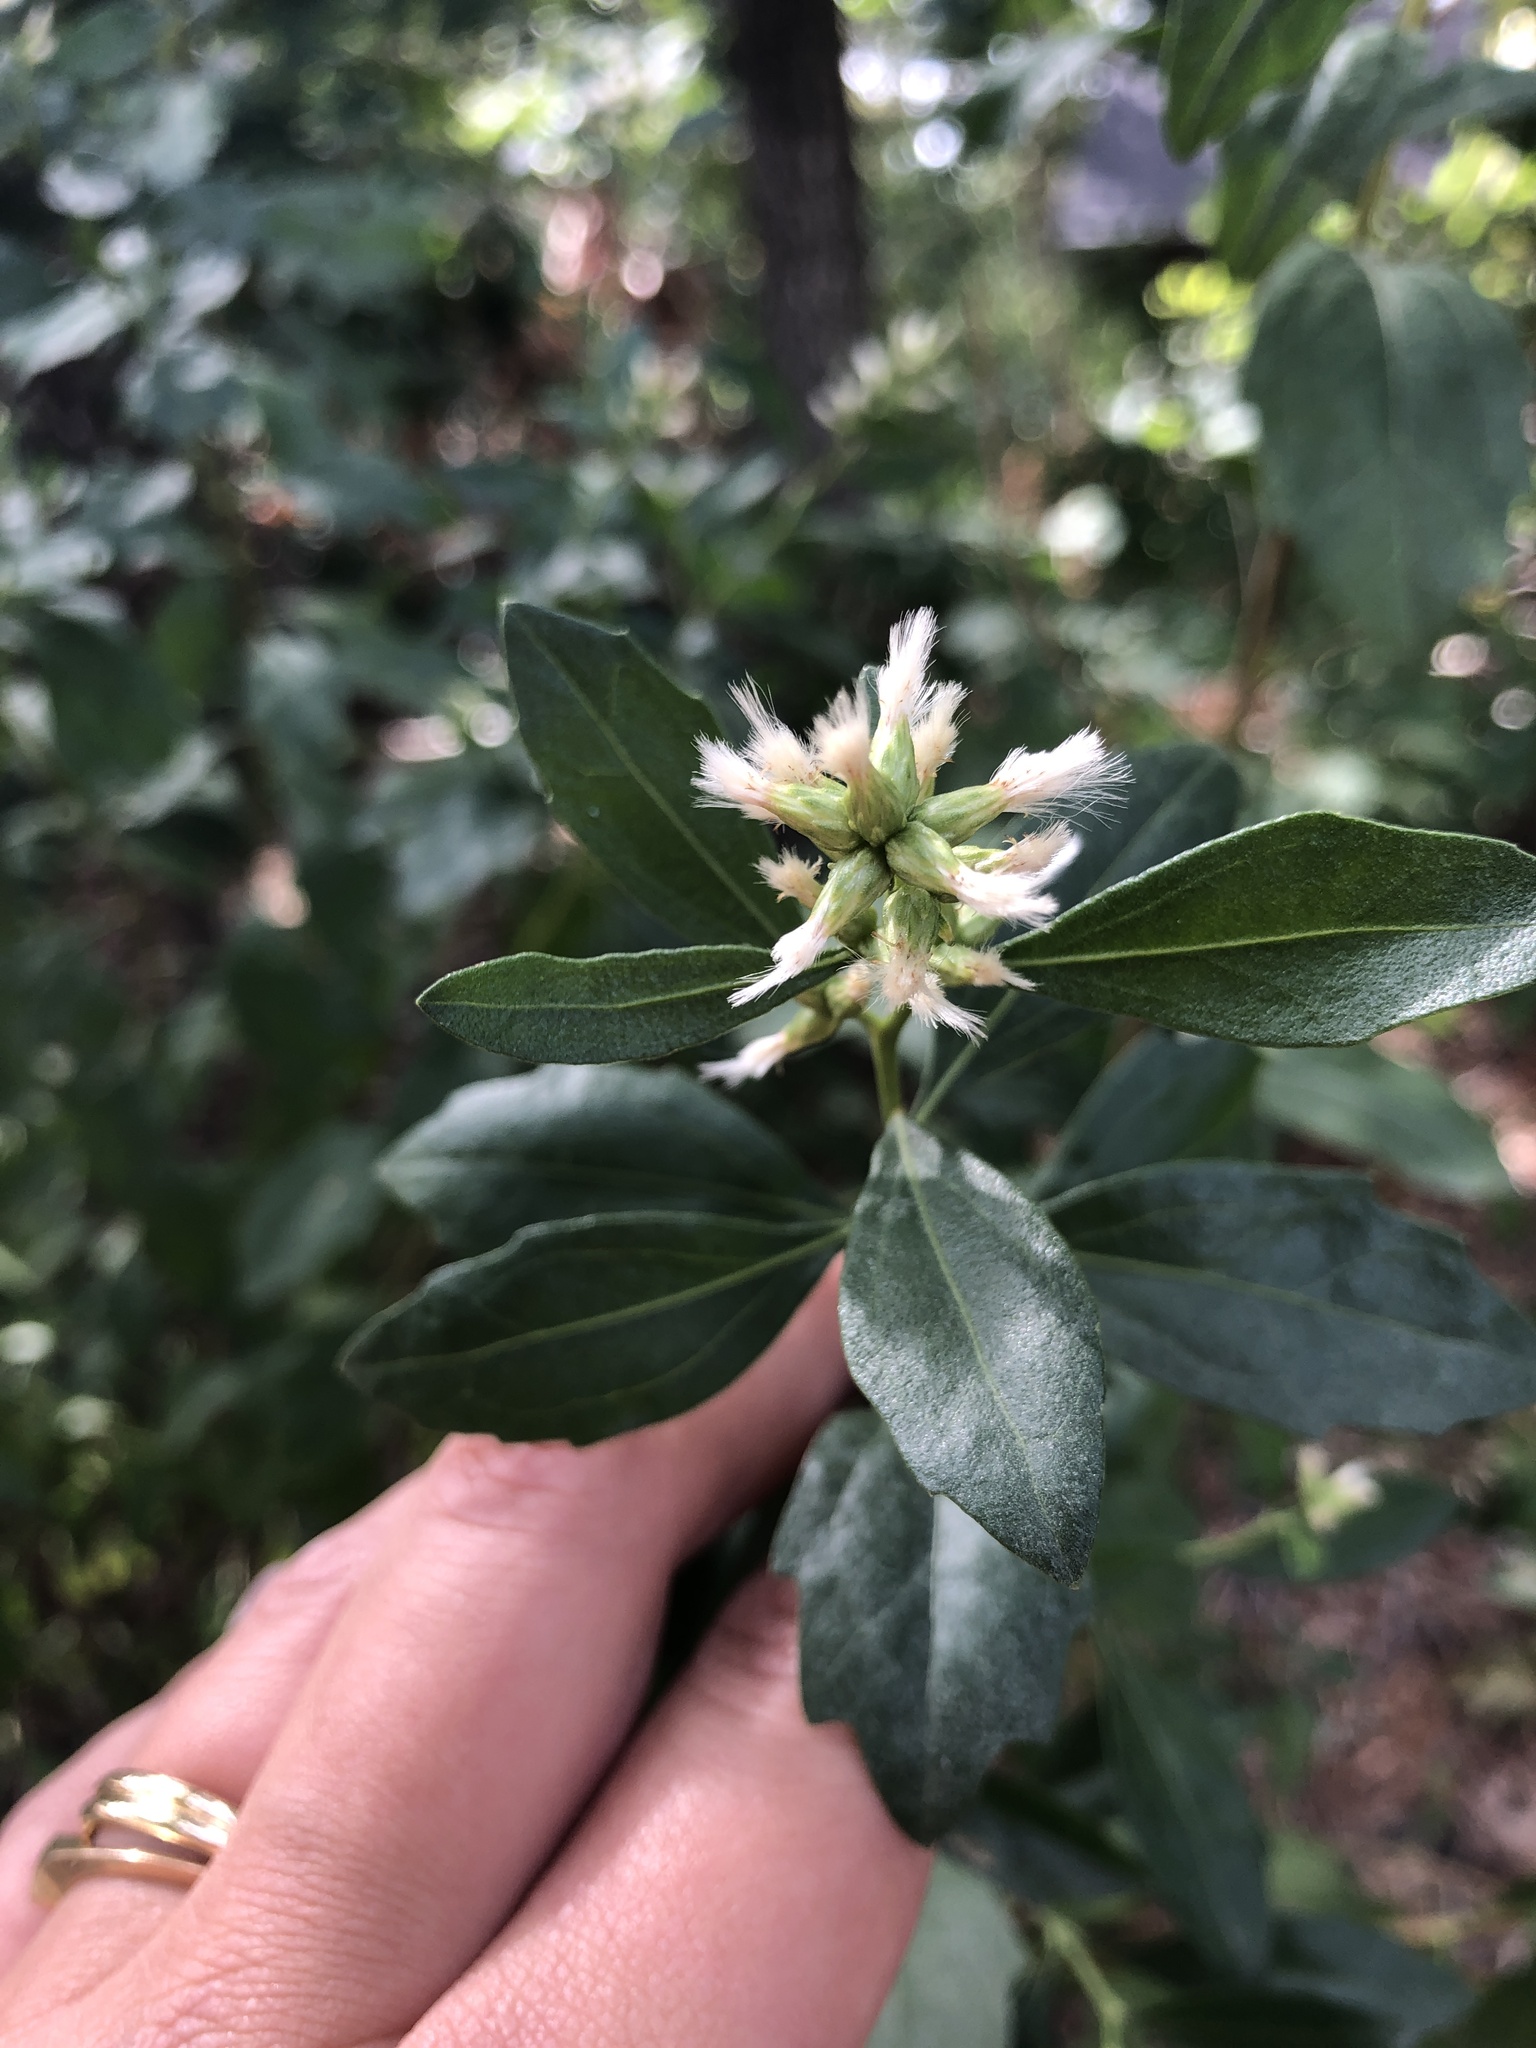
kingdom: Plantae
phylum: Tracheophyta
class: Magnoliopsida
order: Asterales
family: Asteraceae
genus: Baccharis
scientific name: Baccharis halimifolia
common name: Eastern baccharis
